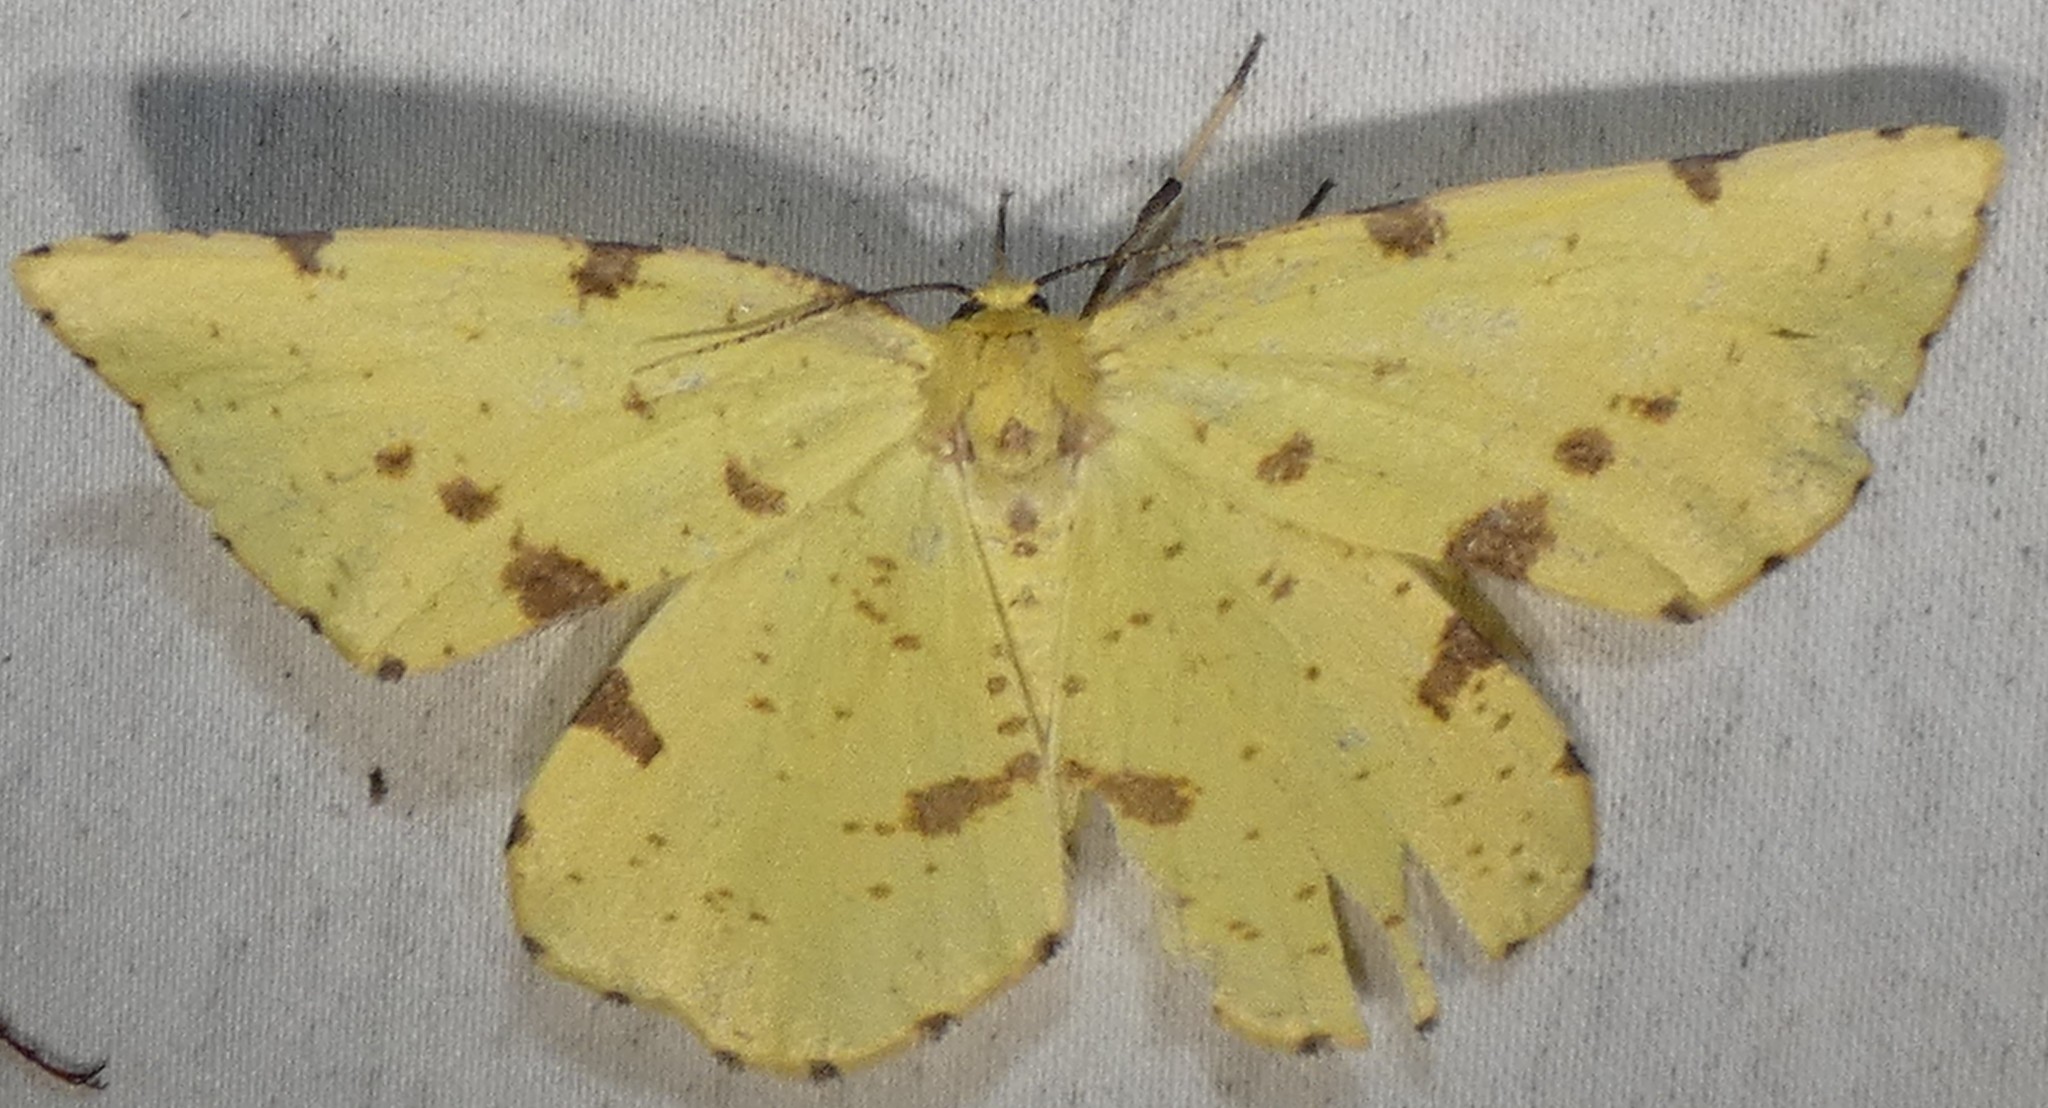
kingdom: Animalia
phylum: Arthropoda
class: Insecta
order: Lepidoptera
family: Geometridae
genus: Xanthotype
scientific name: Xanthotype
